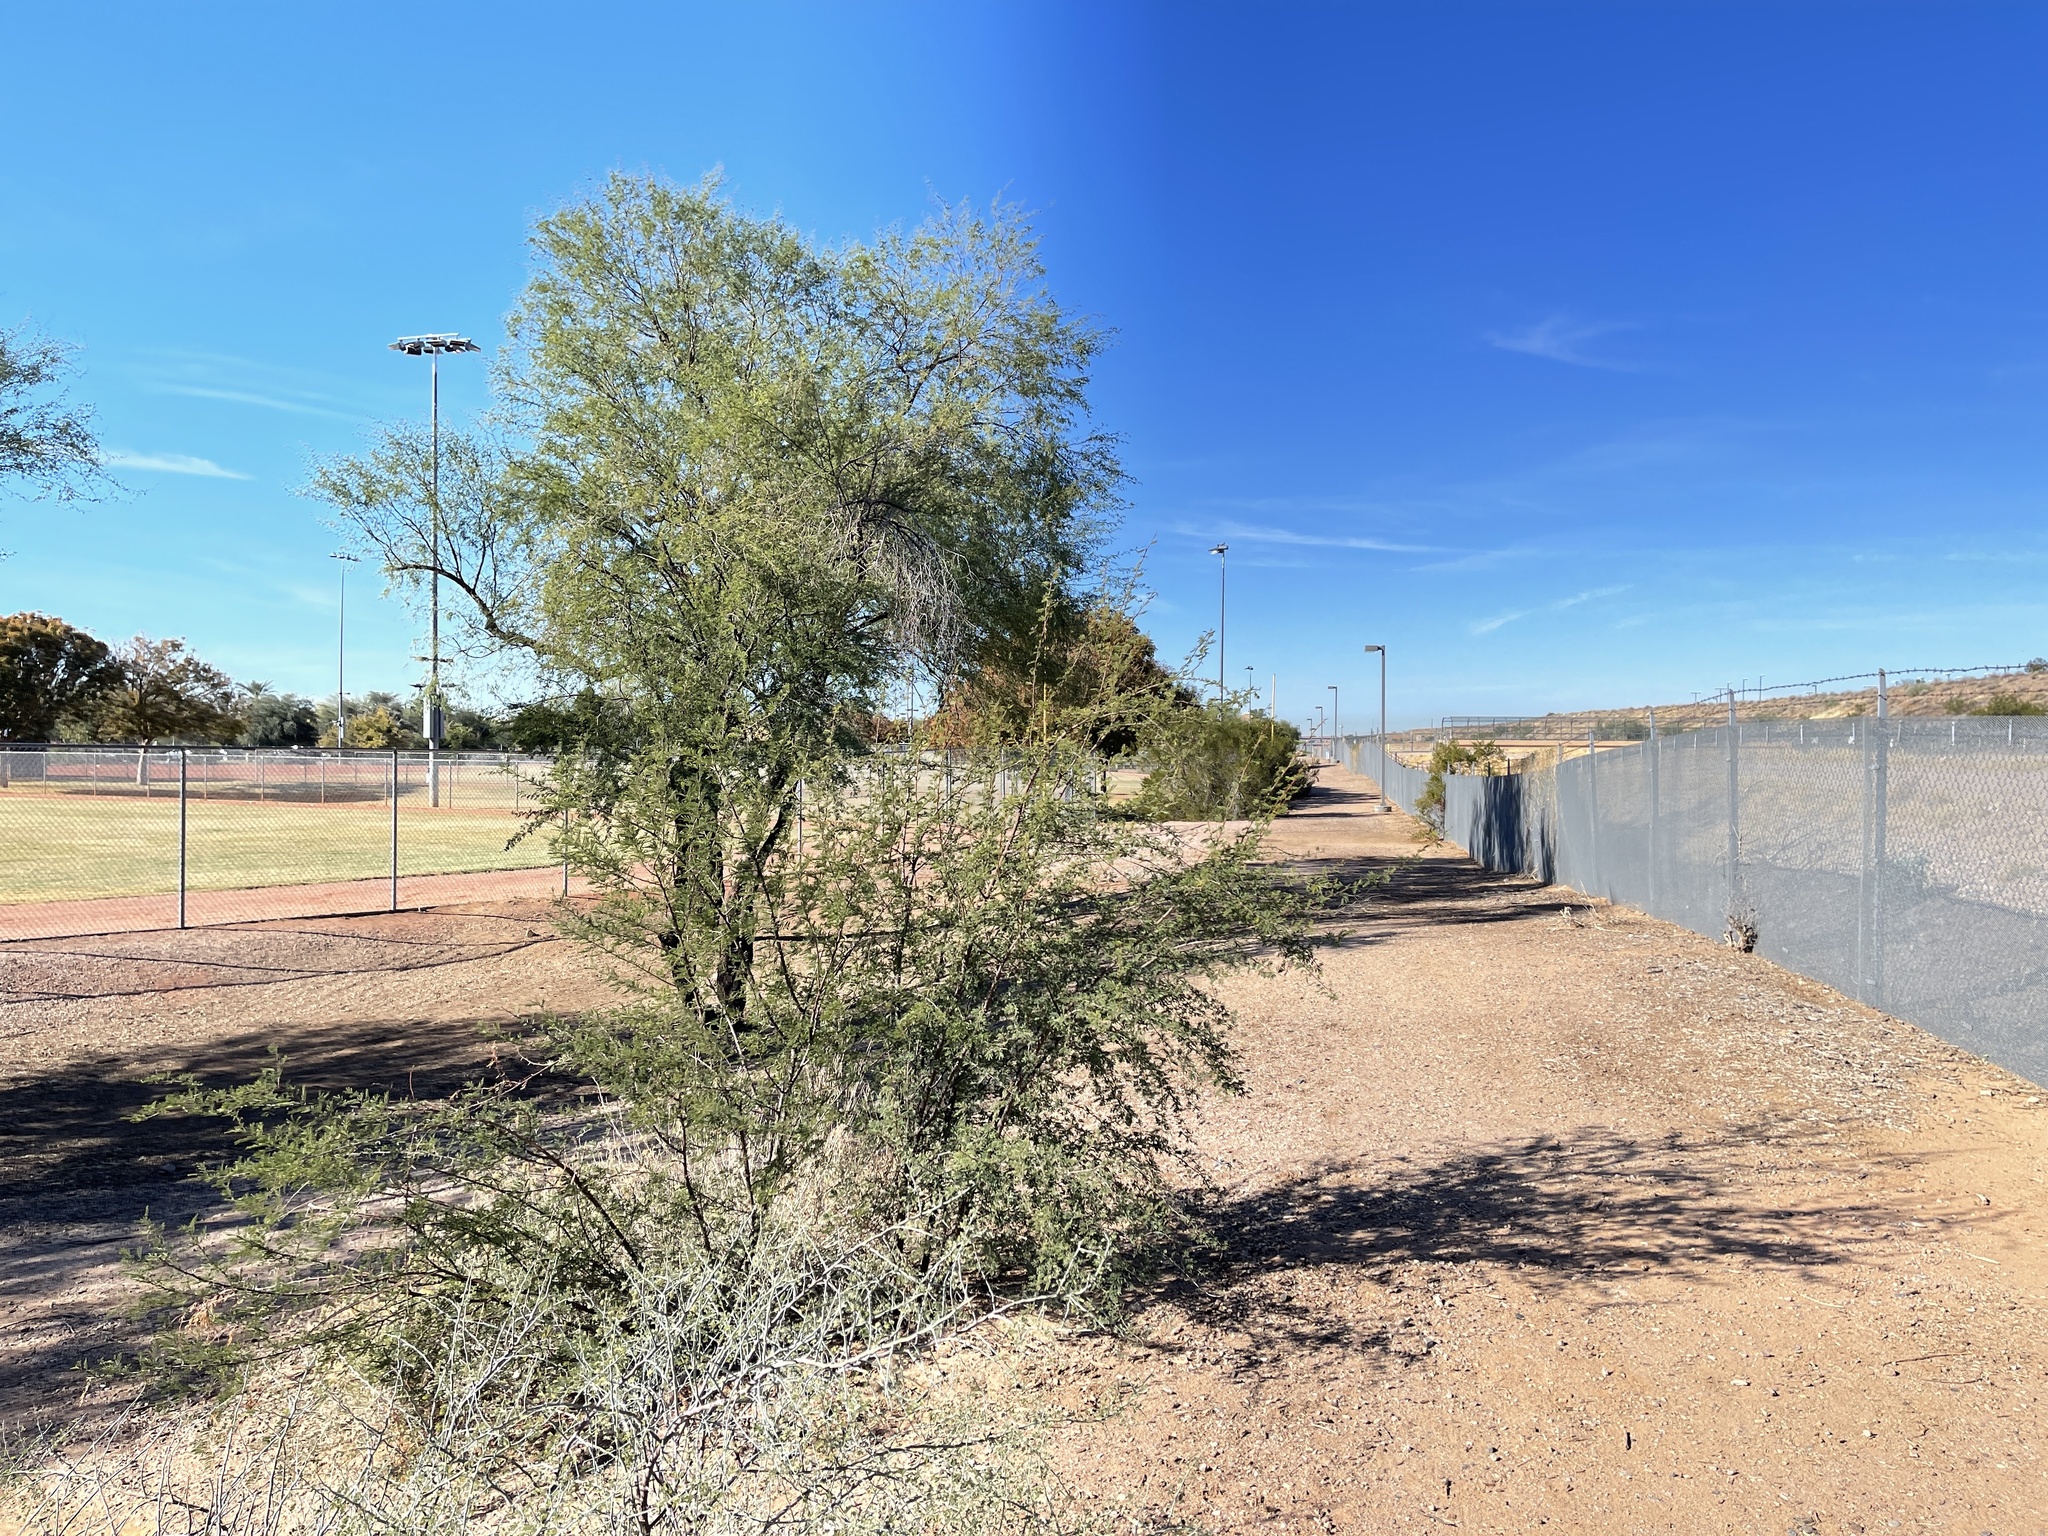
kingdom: Plantae
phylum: Tracheophyta
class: Magnoliopsida
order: Fabales
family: Fabaceae
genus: Vachellia
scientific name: Vachellia constricta
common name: Mescat acacia
